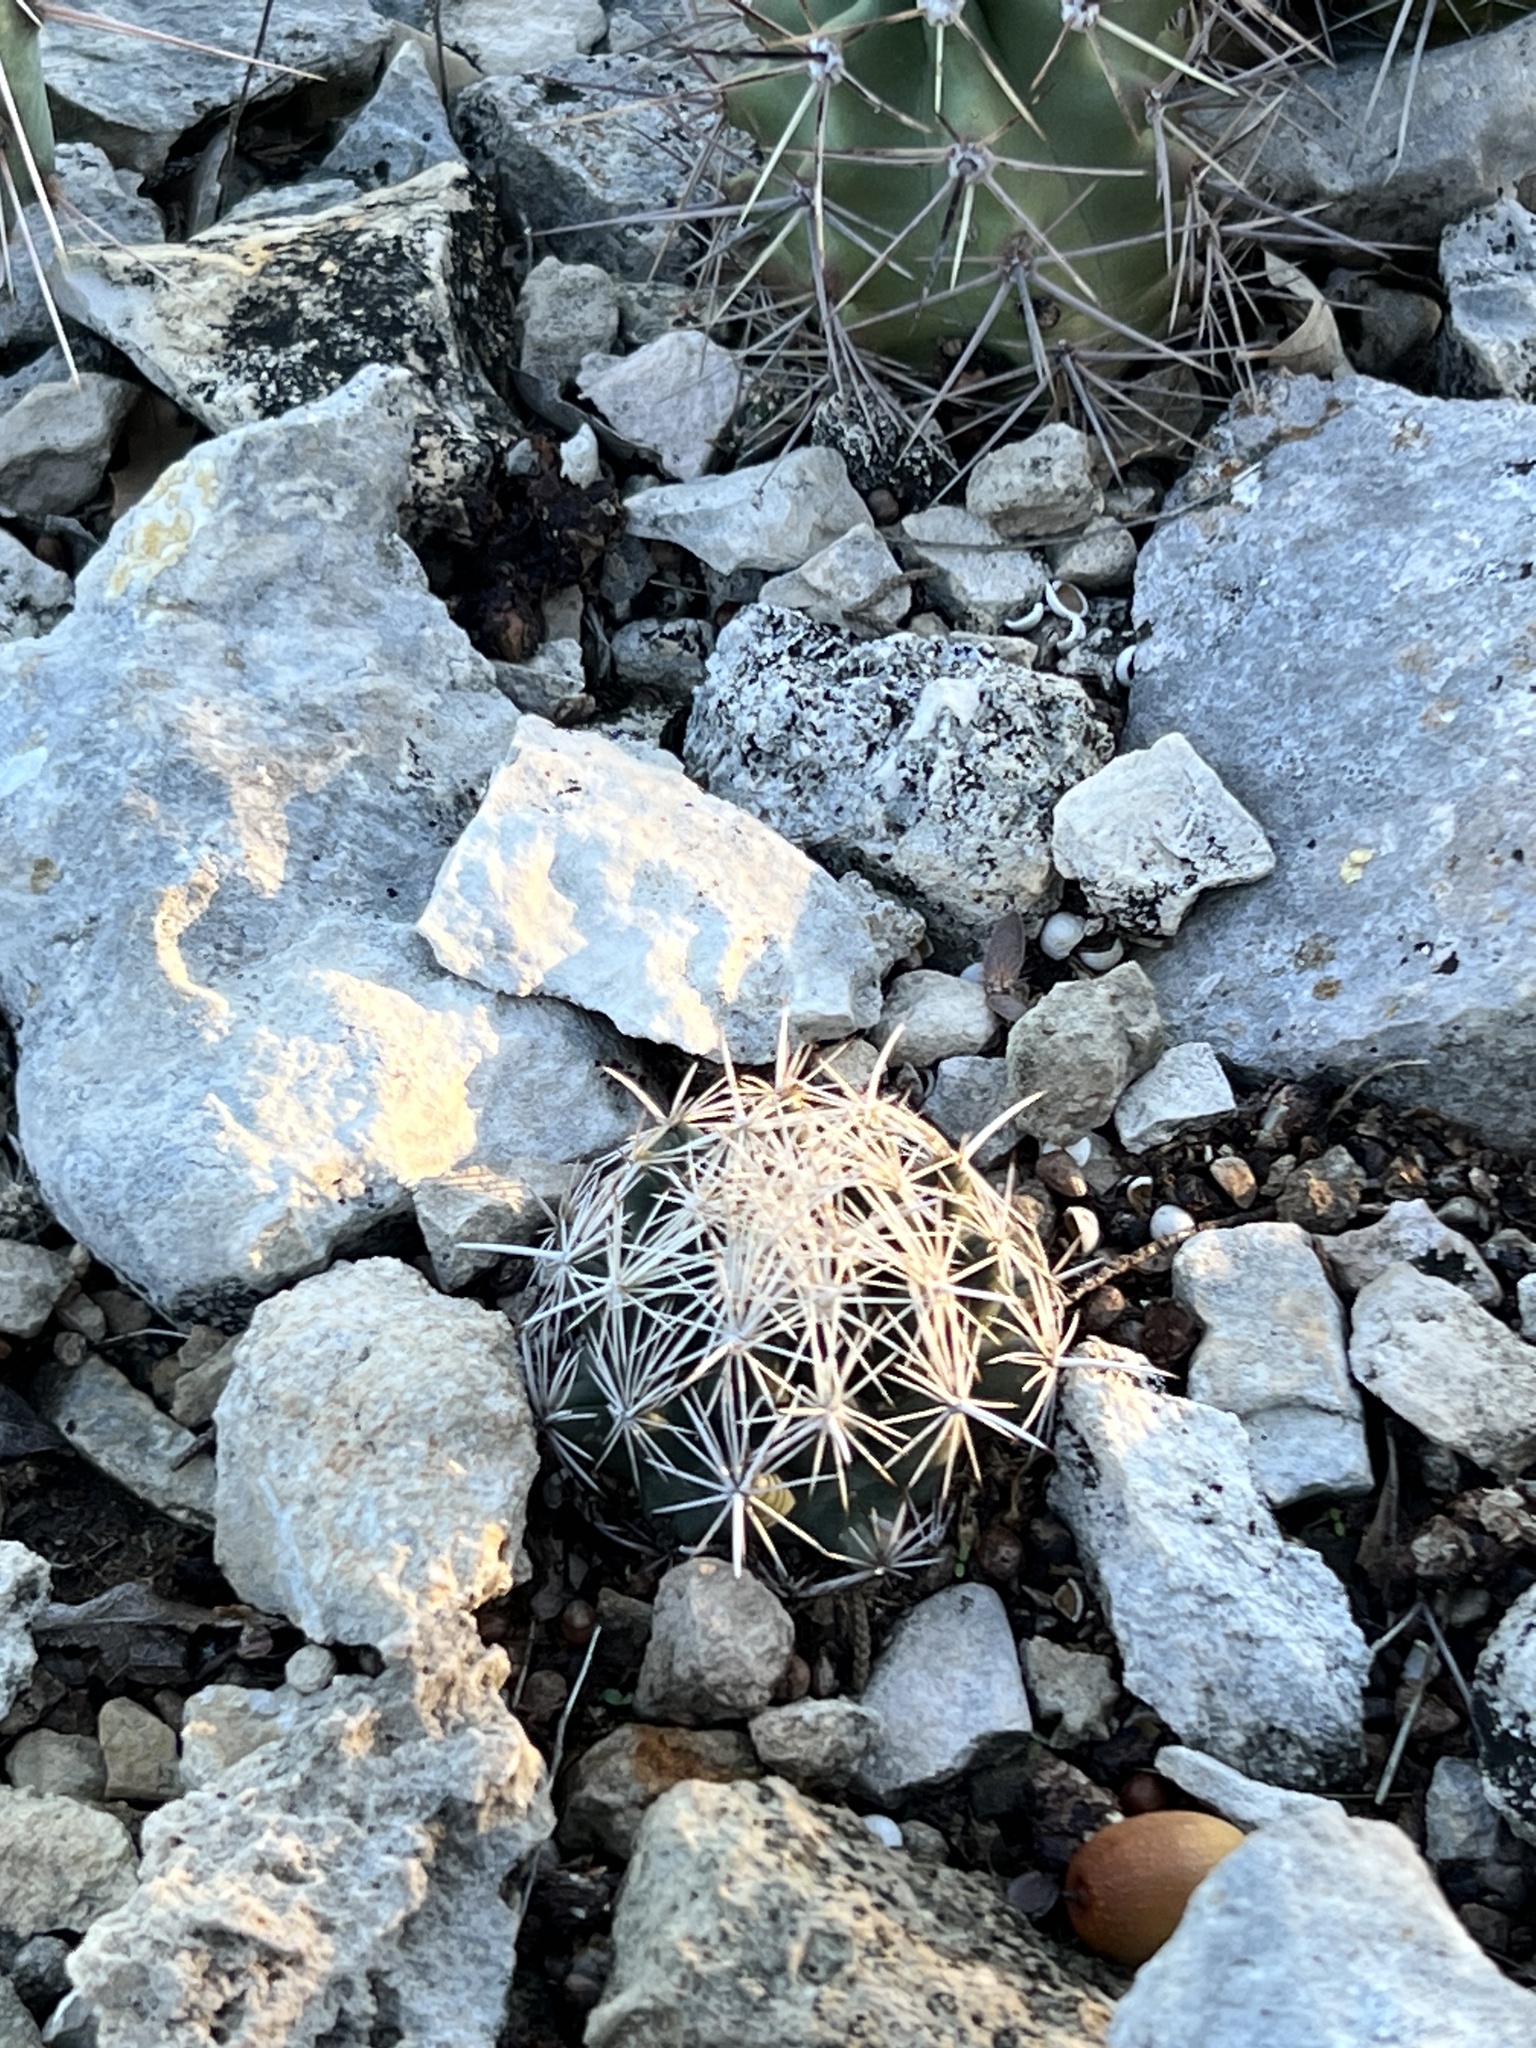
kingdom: Plantae
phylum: Tracheophyta
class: Magnoliopsida
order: Caryophyllales
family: Cactaceae
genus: Coryphantha
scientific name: Coryphantha echinus
